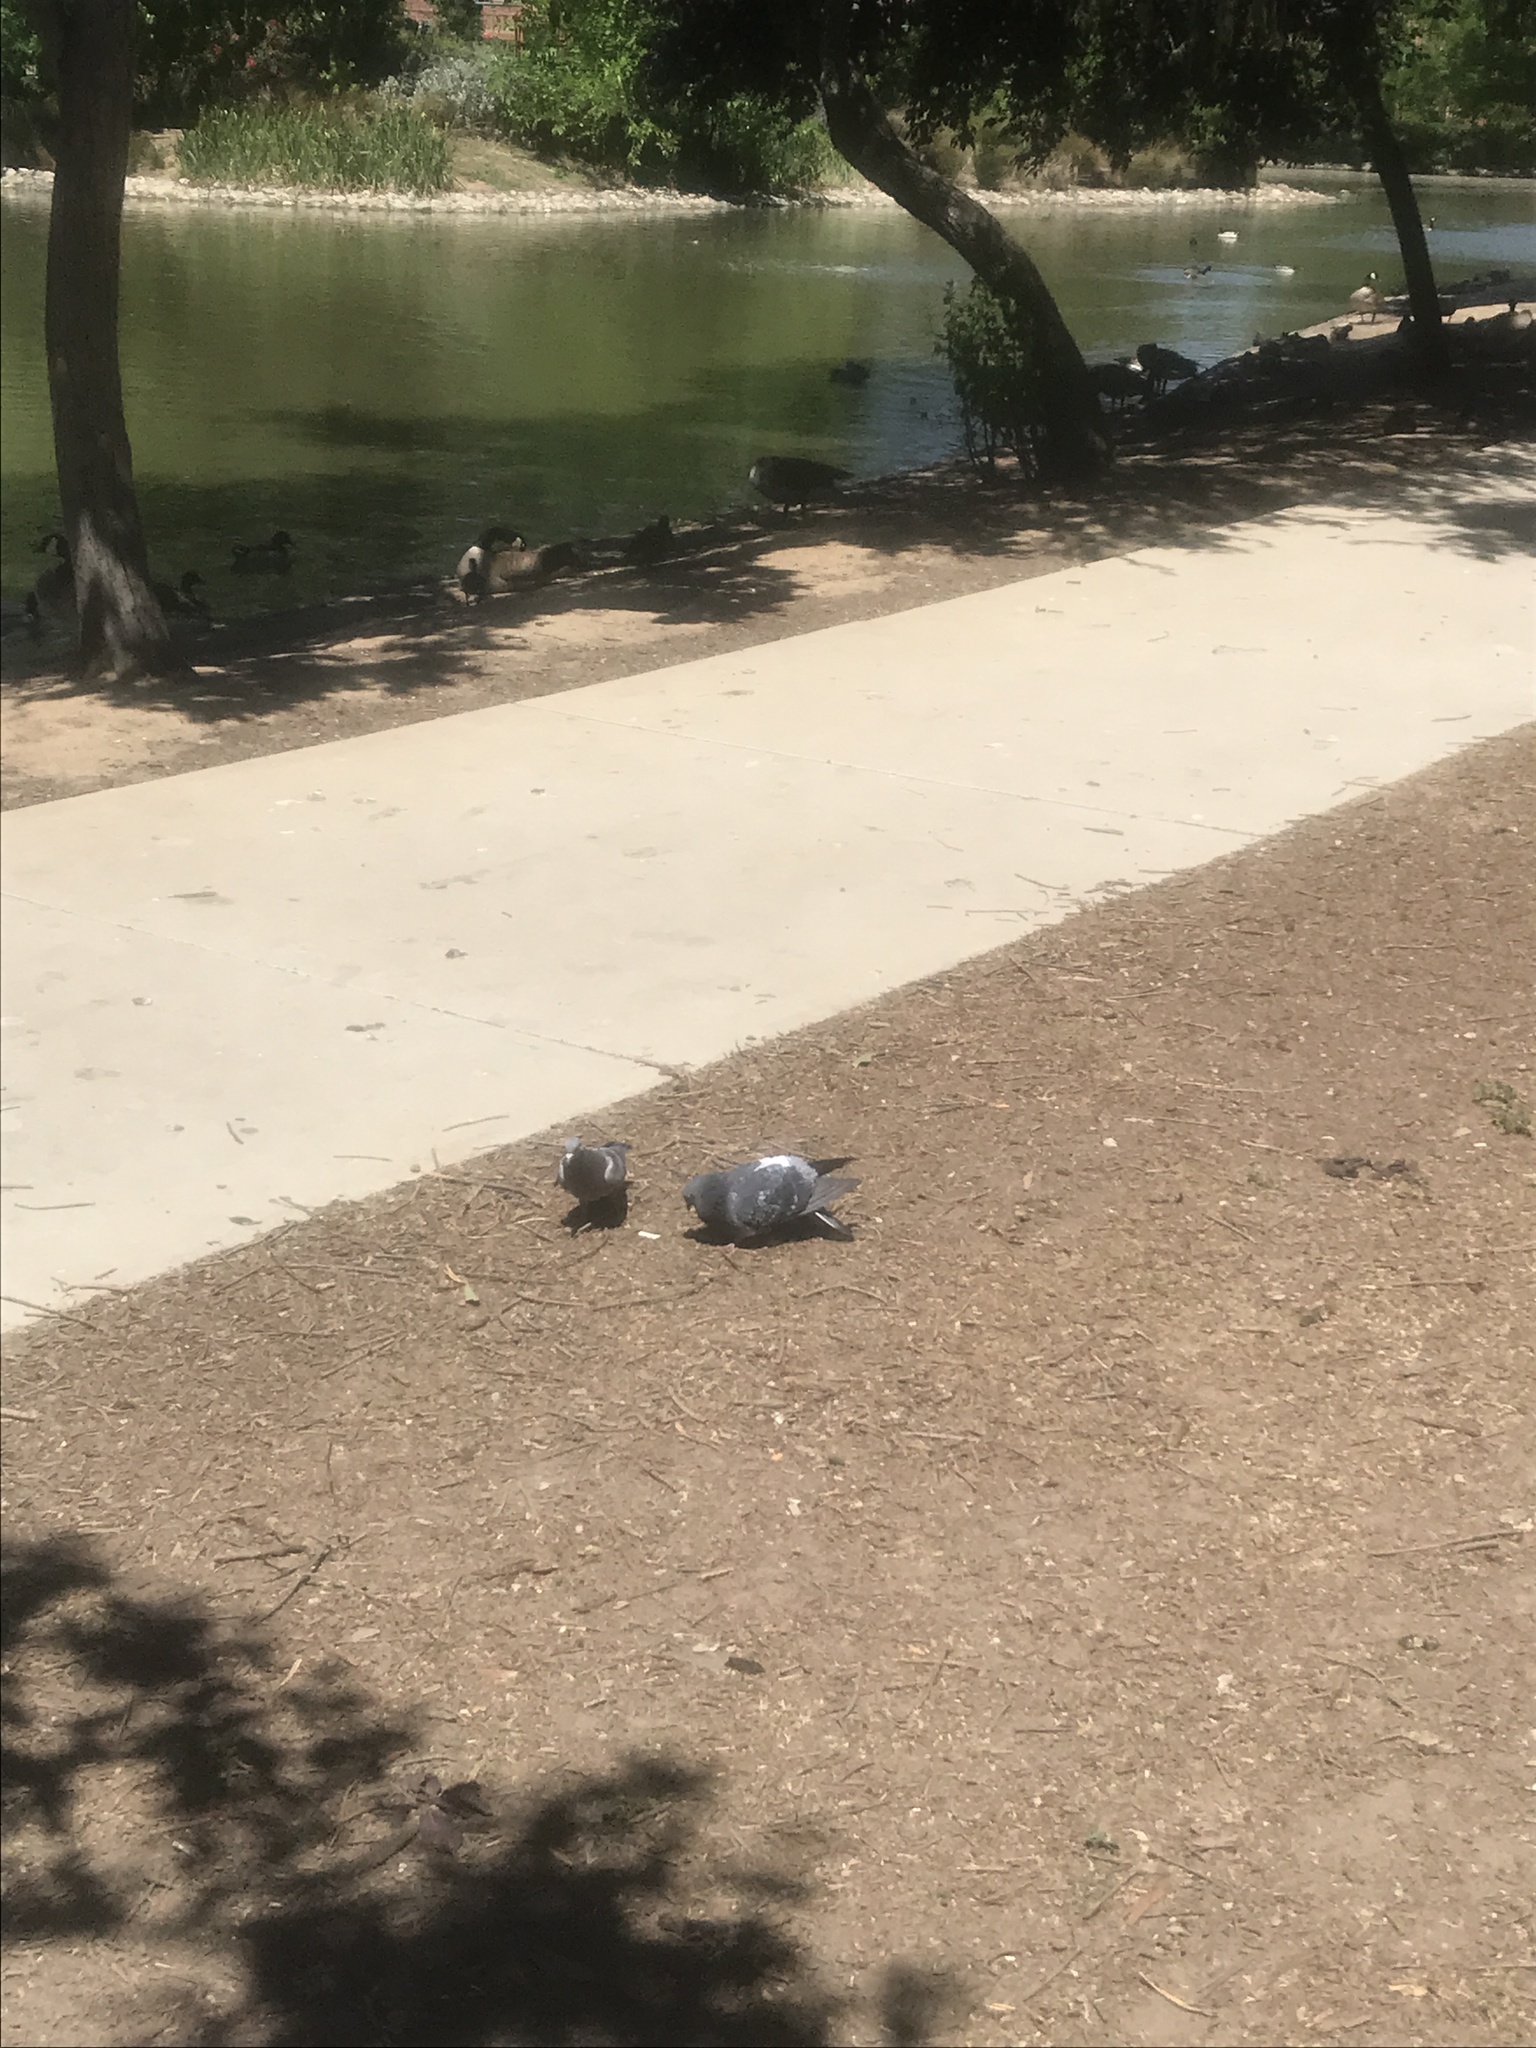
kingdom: Animalia
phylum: Chordata
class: Aves
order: Columbiformes
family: Columbidae
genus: Columba
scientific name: Columba livia
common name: Rock pigeon
